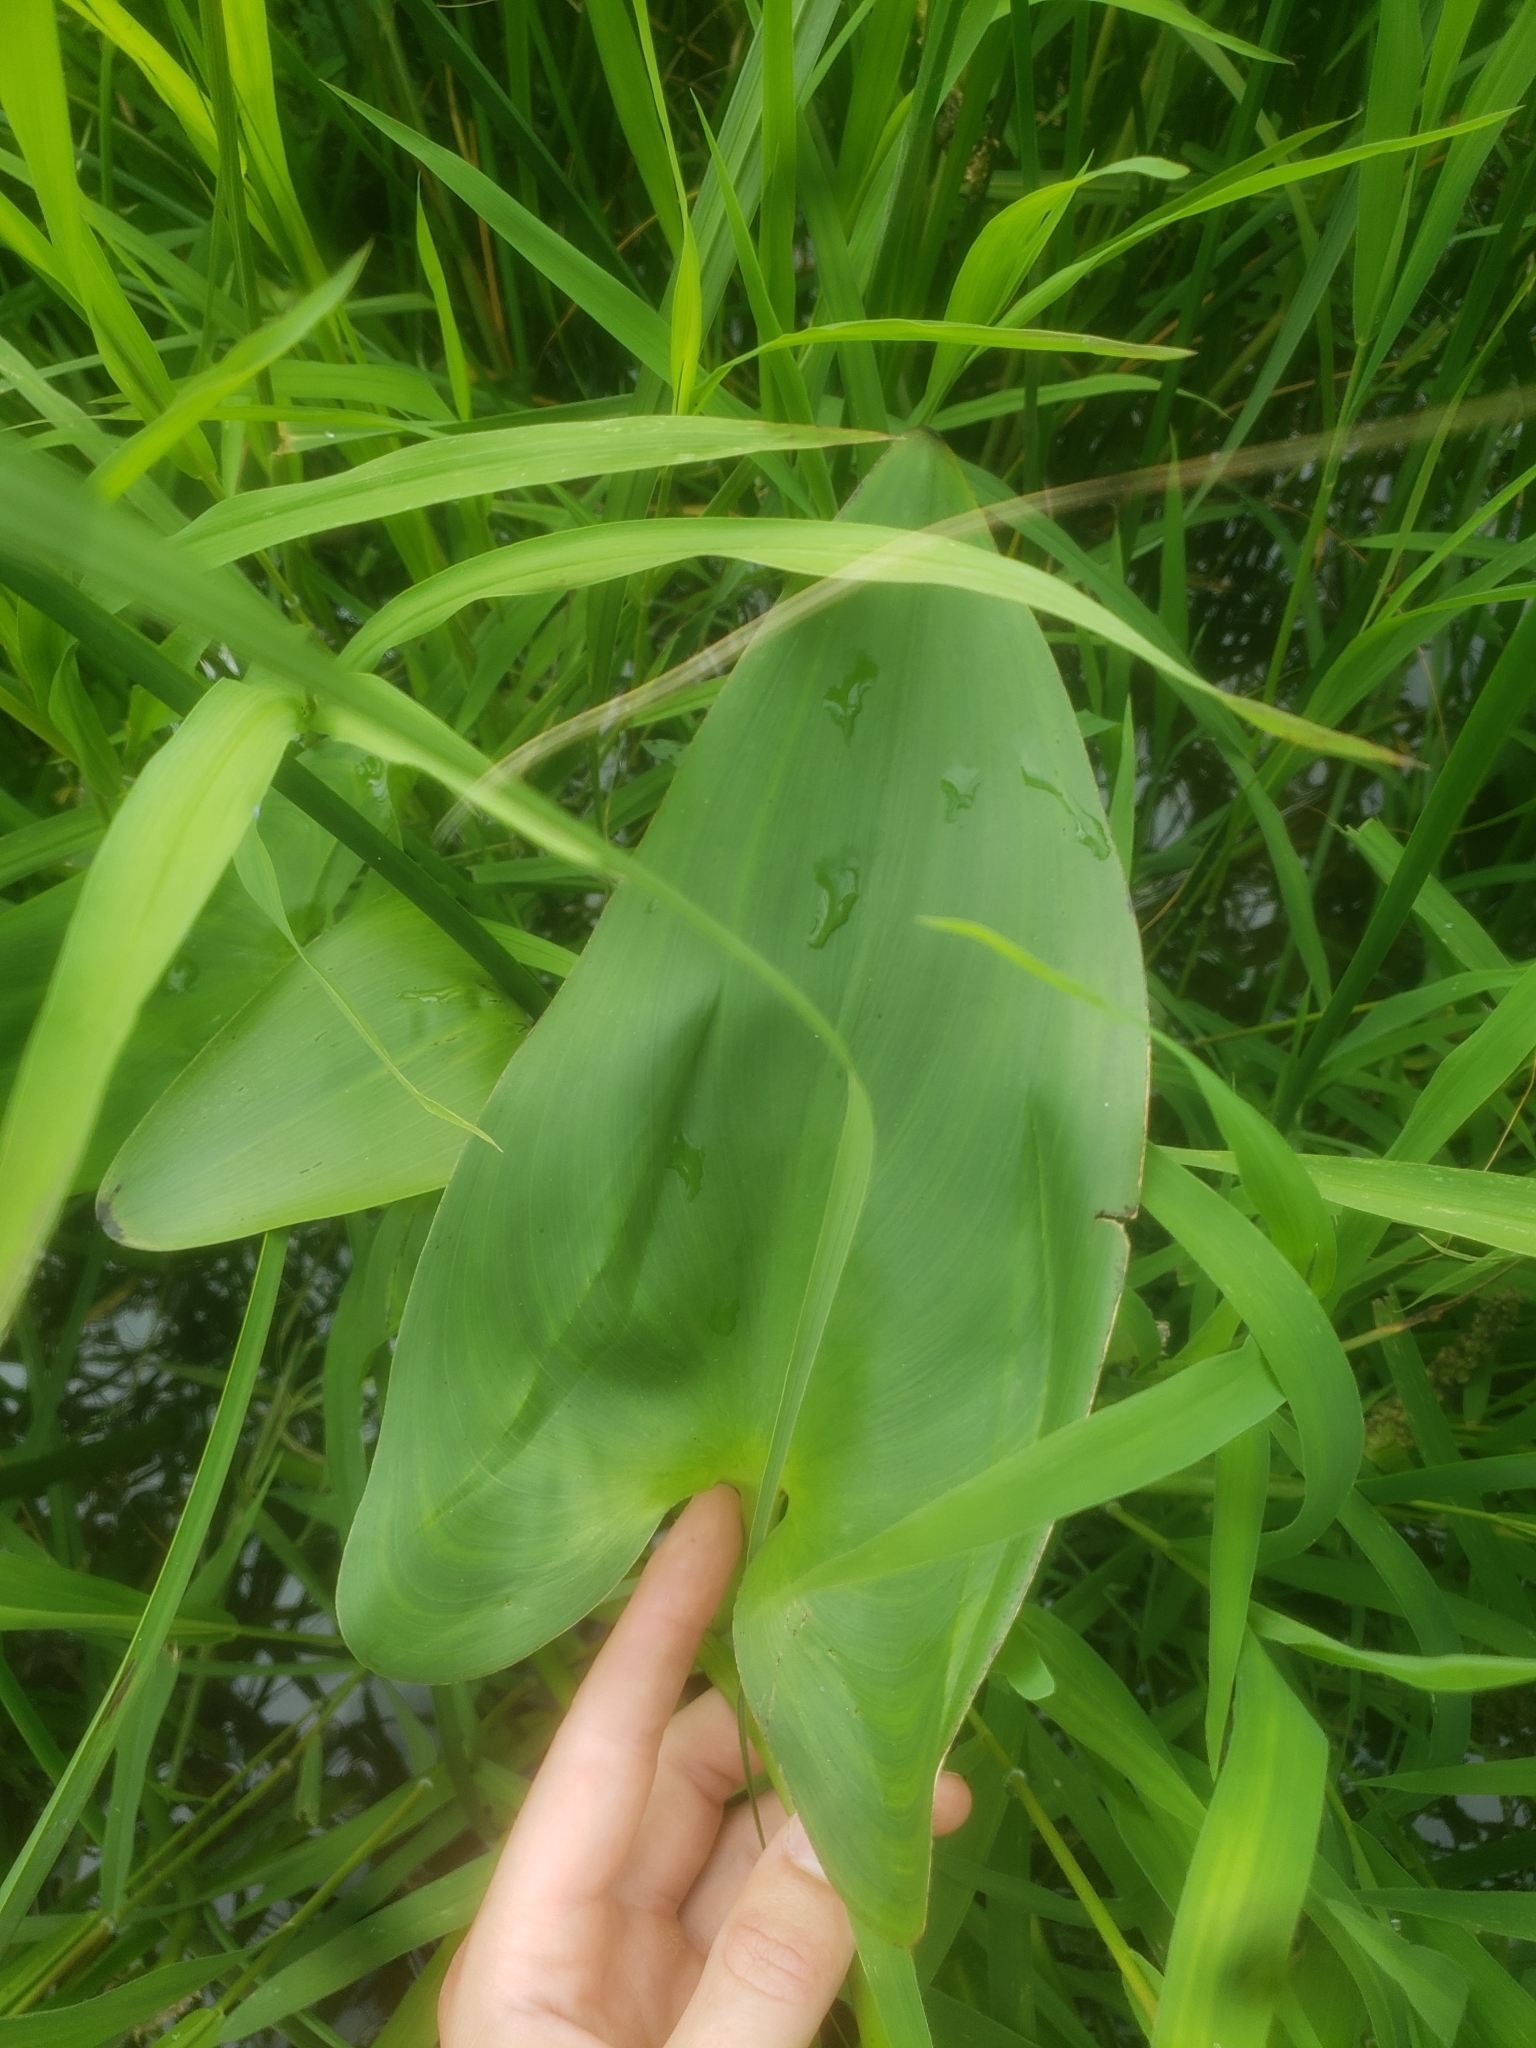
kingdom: Plantae
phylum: Tracheophyta
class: Liliopsida
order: Commelinales
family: Pontederiaceae
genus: Pontederia
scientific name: Pontederia cordata
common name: Pickerelweed
